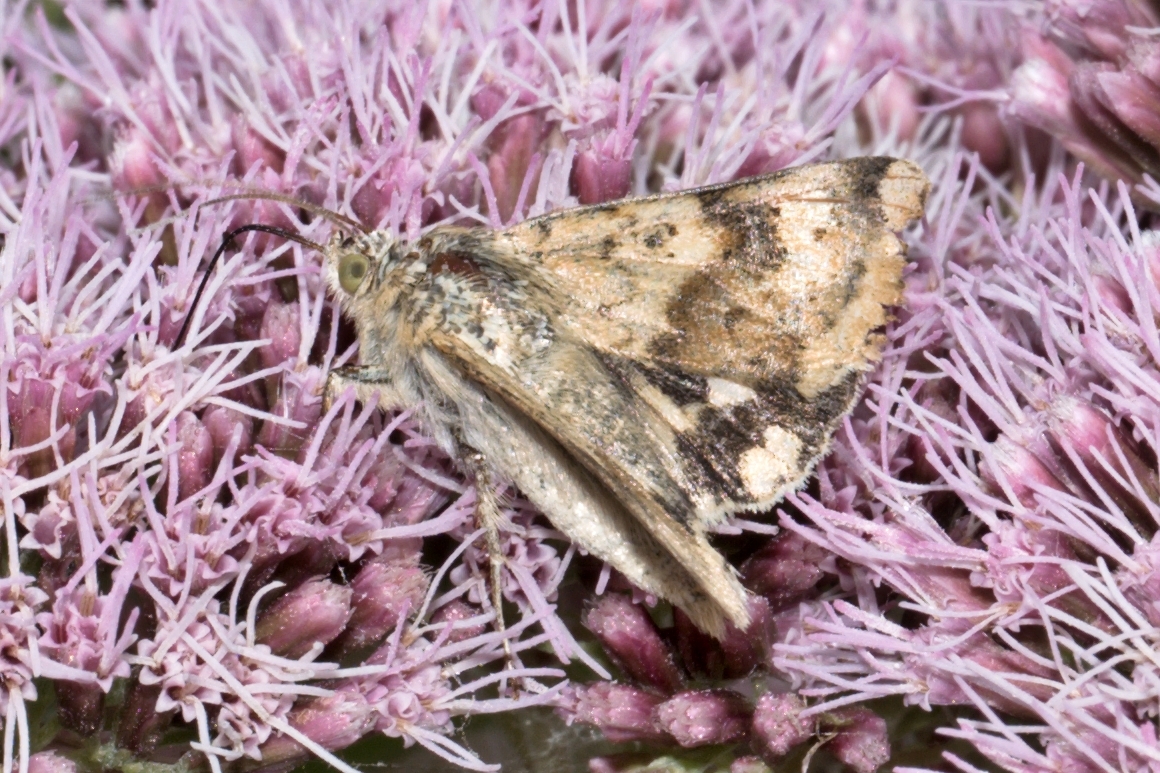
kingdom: Animalia
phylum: Arthropoda
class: Insecta
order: Lepidoptera
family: Noctuidae
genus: Heliothis
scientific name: Heliothis viriplaca
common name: Marbled clover
